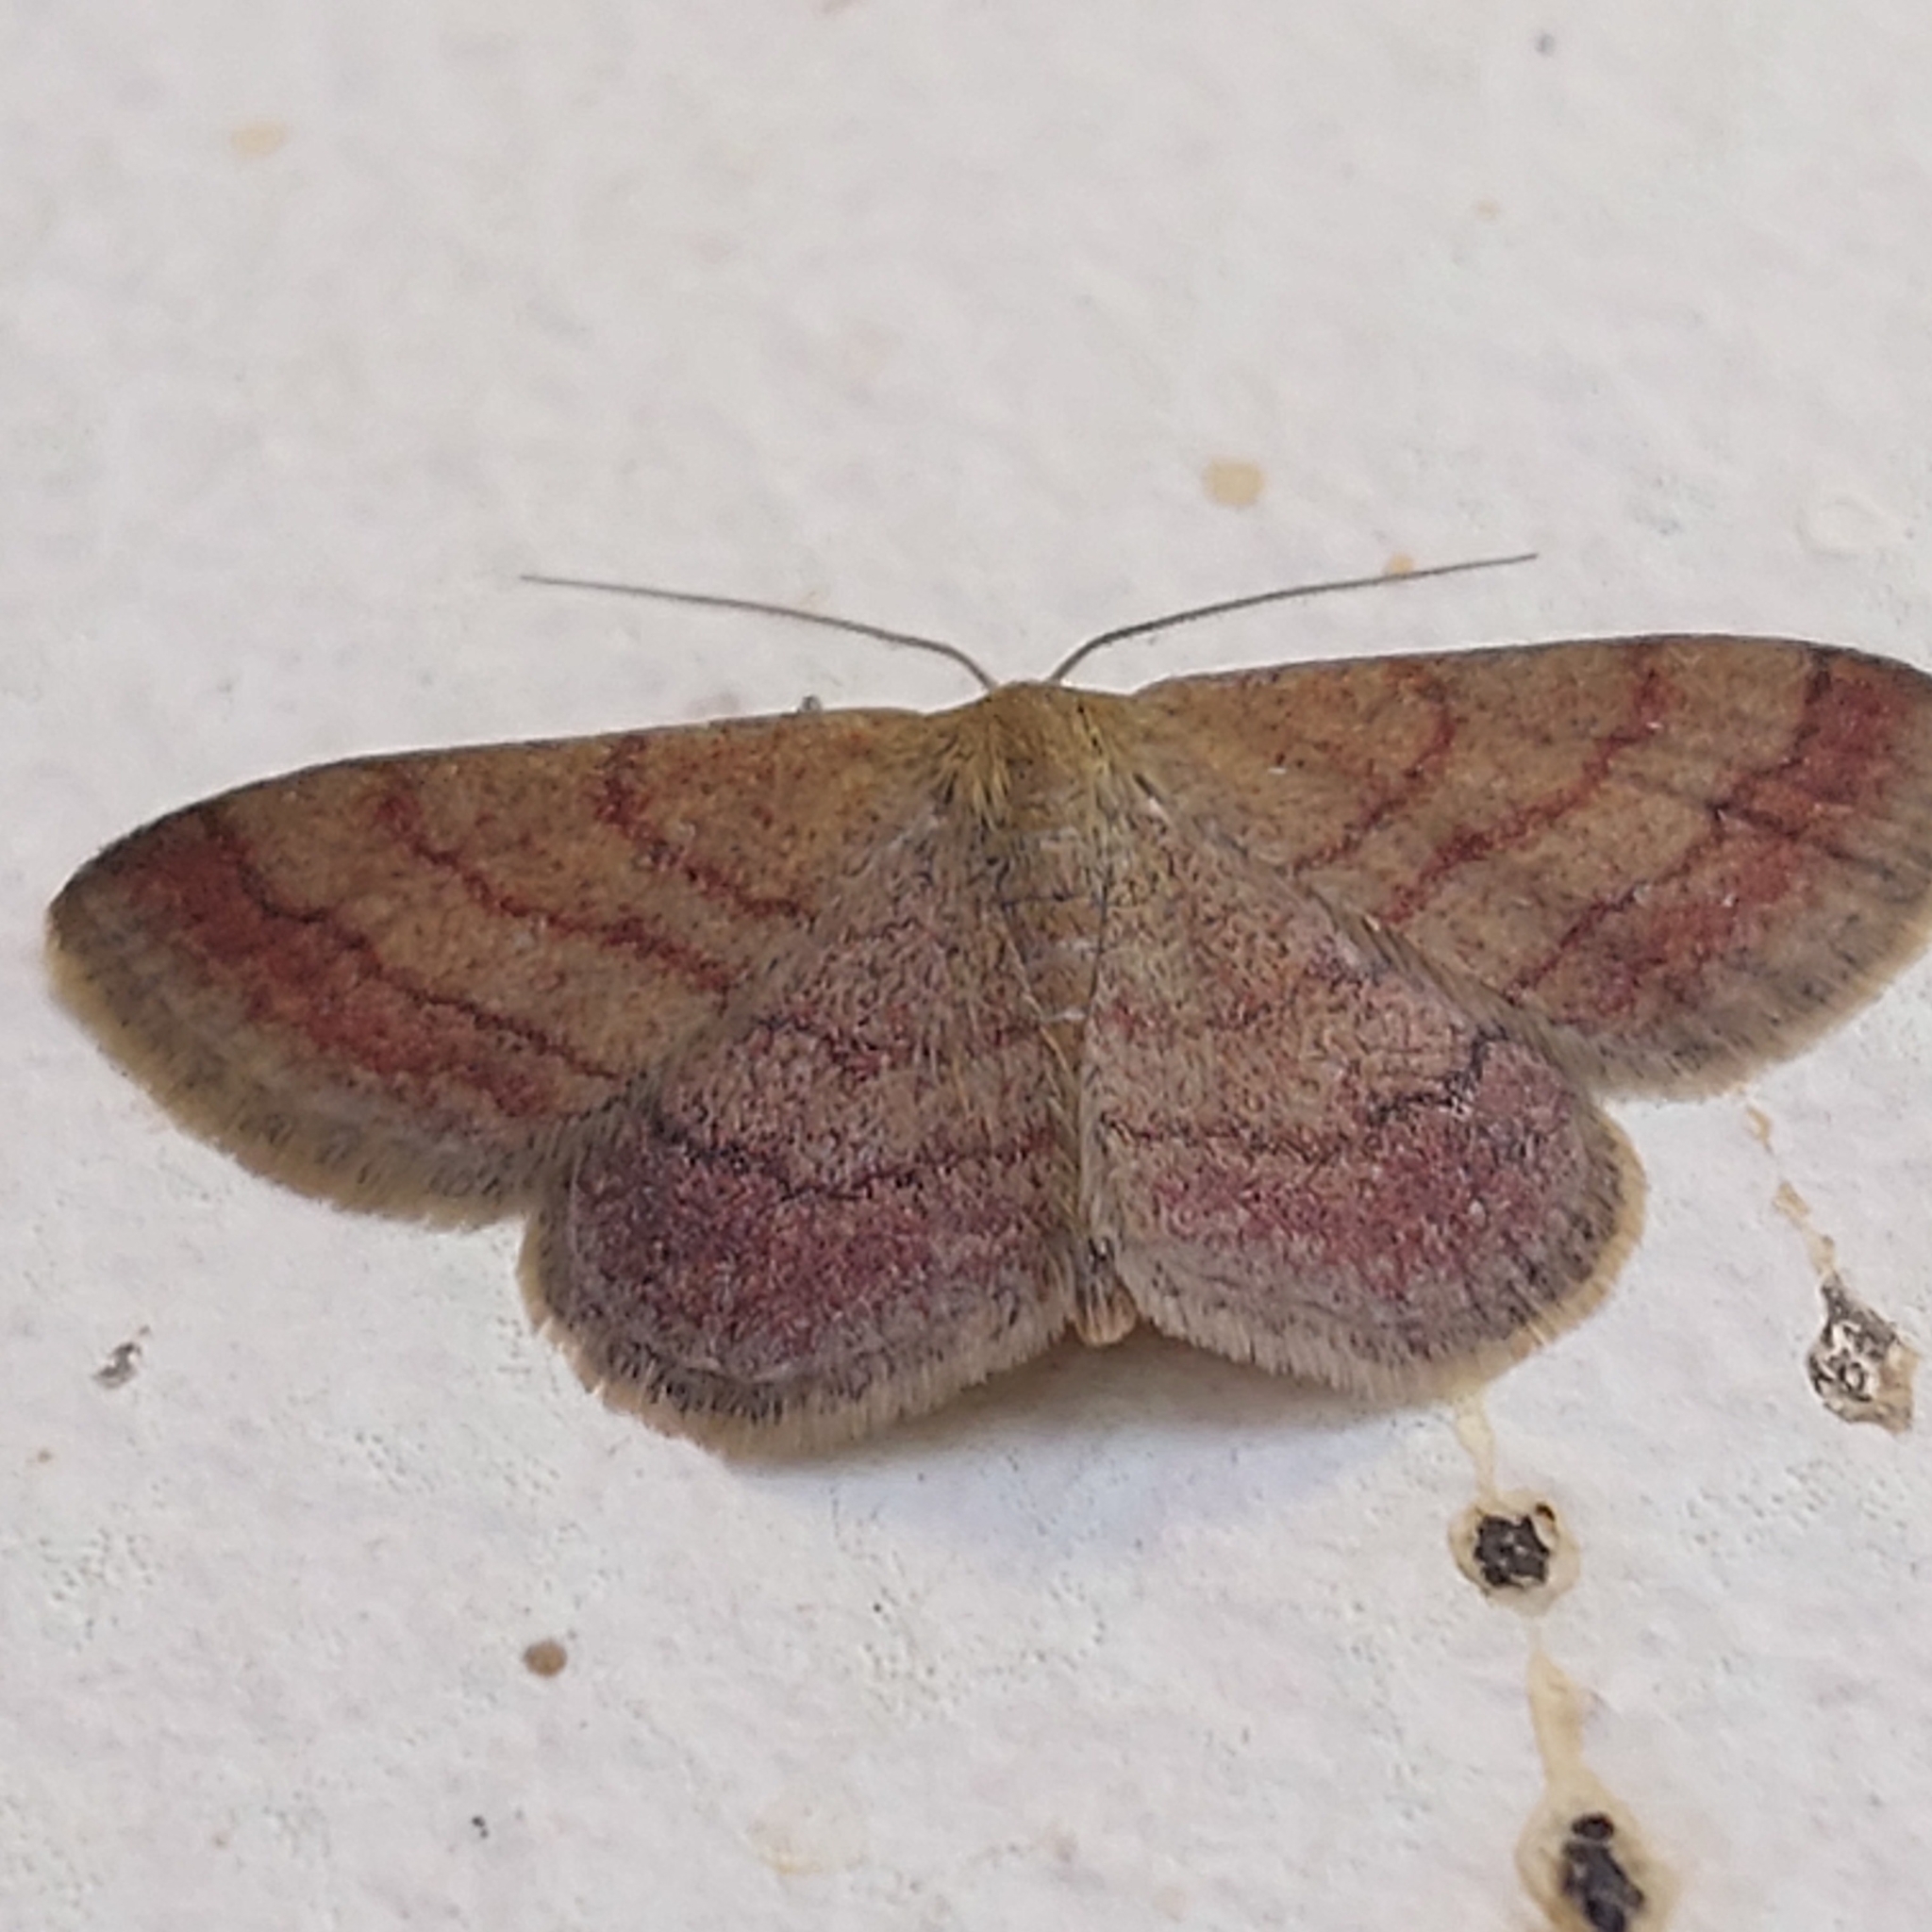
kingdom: Animalia
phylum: Arthropoda
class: Insecta
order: Lepidoptera
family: Geometridae
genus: Scopula
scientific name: Scopula rubiginata
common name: Tawny wave
